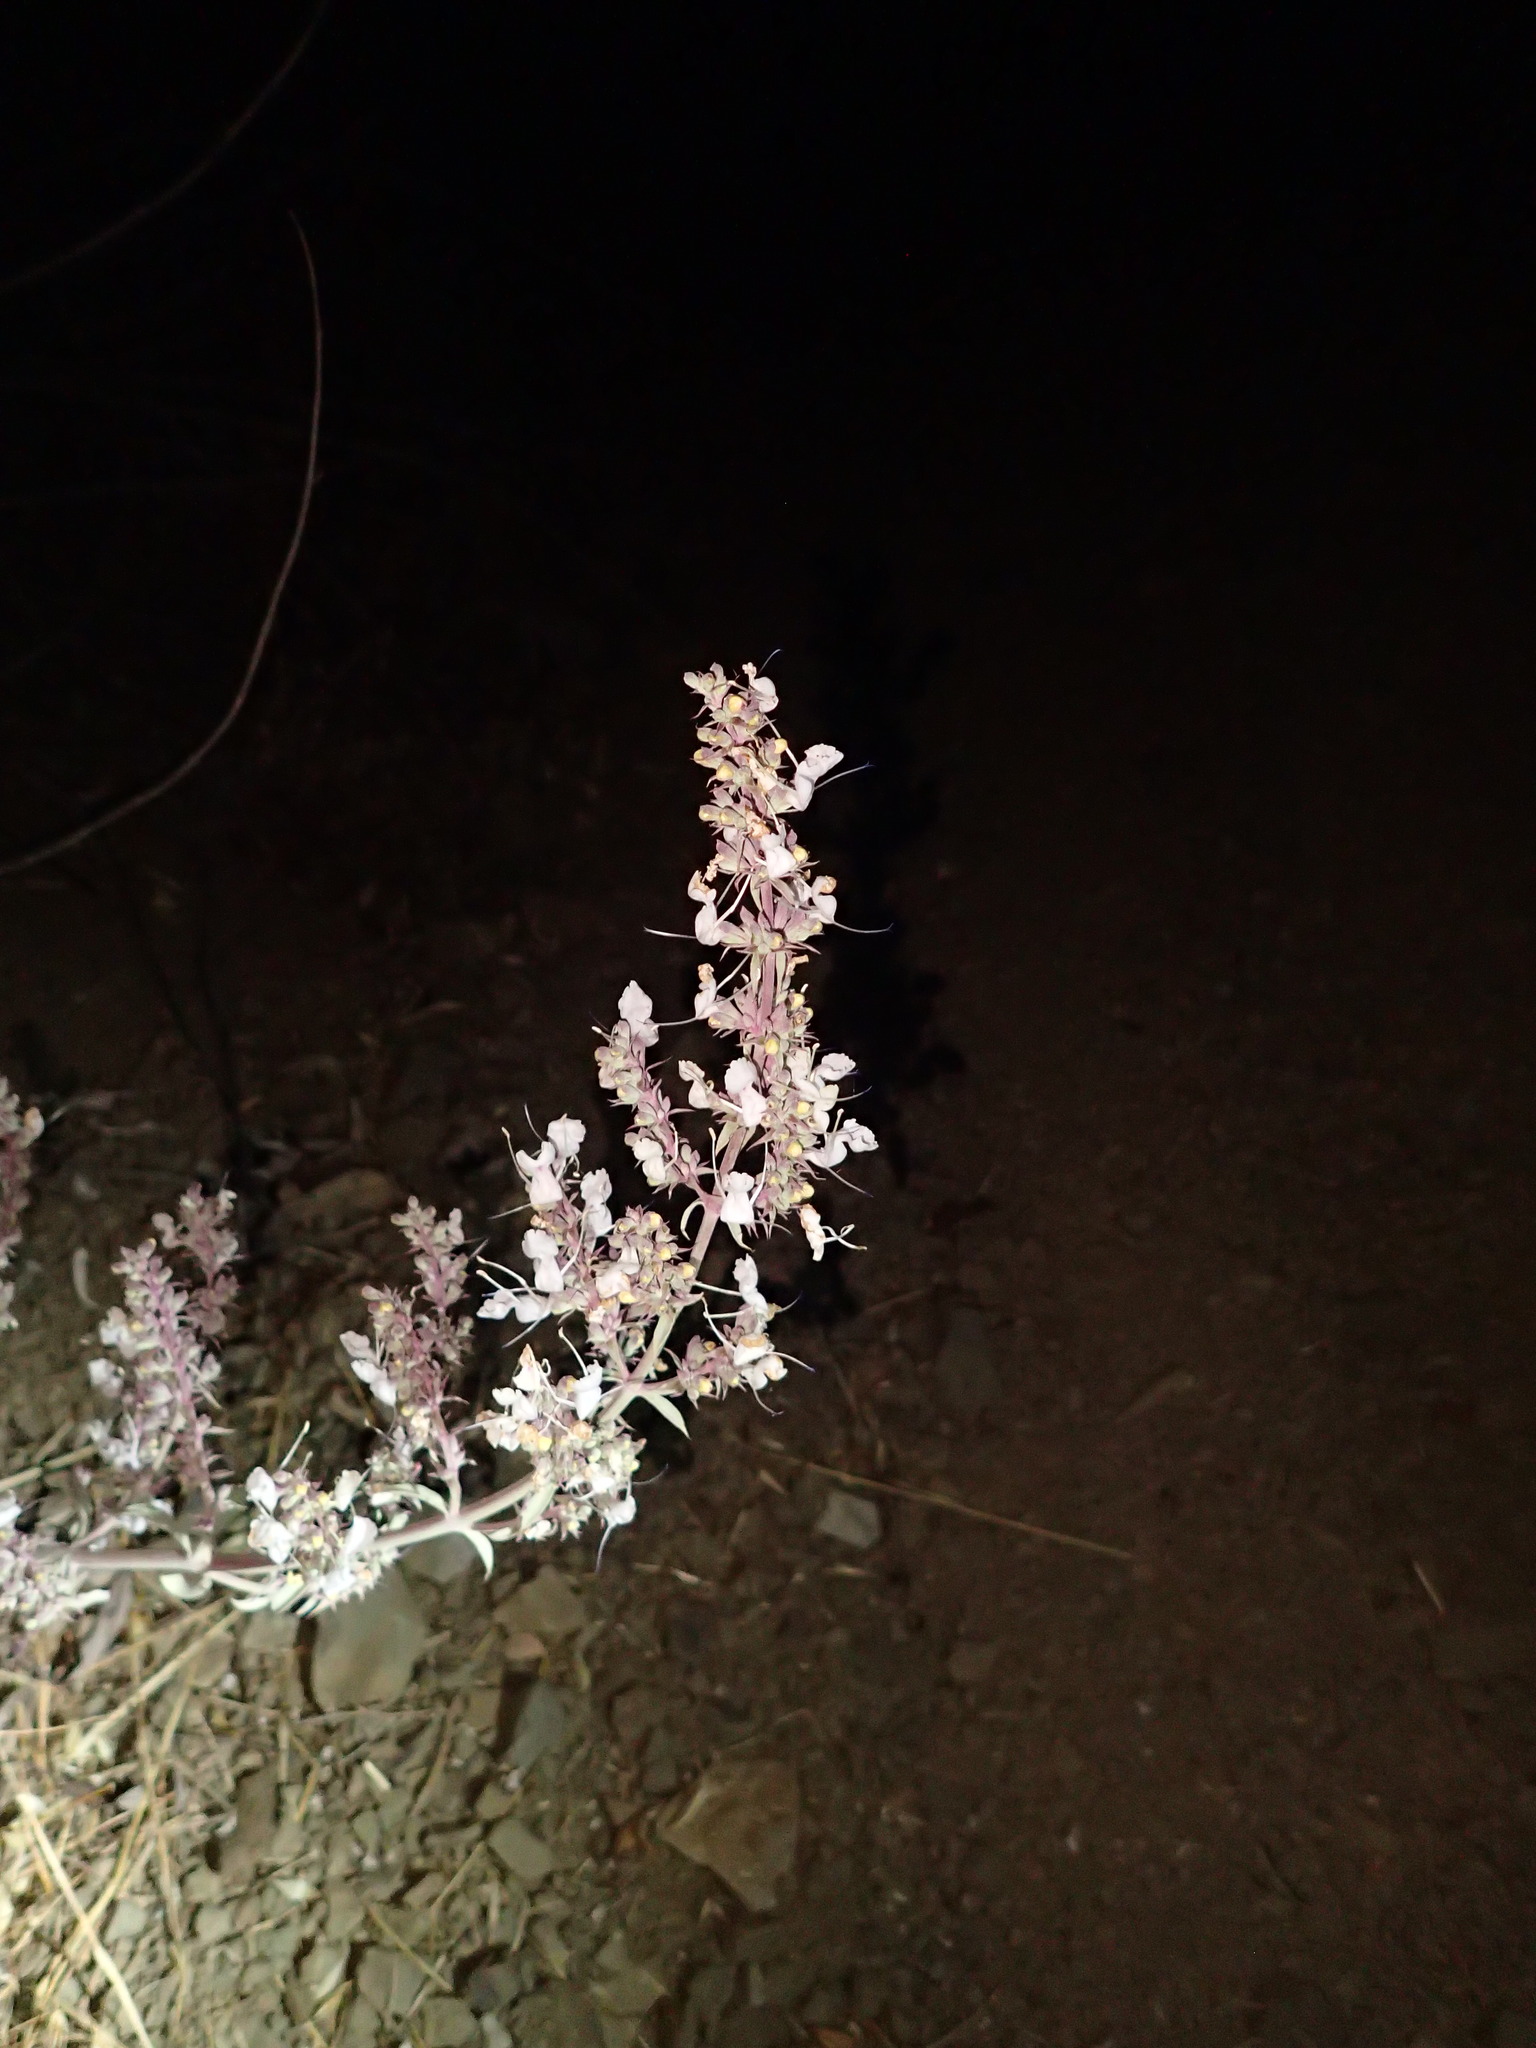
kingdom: Plantae
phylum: Tracheophyta
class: Magnoliopsida
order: Lamiales
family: Lamiaceae
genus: Salvia
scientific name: Salvia apiana
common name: White sage
